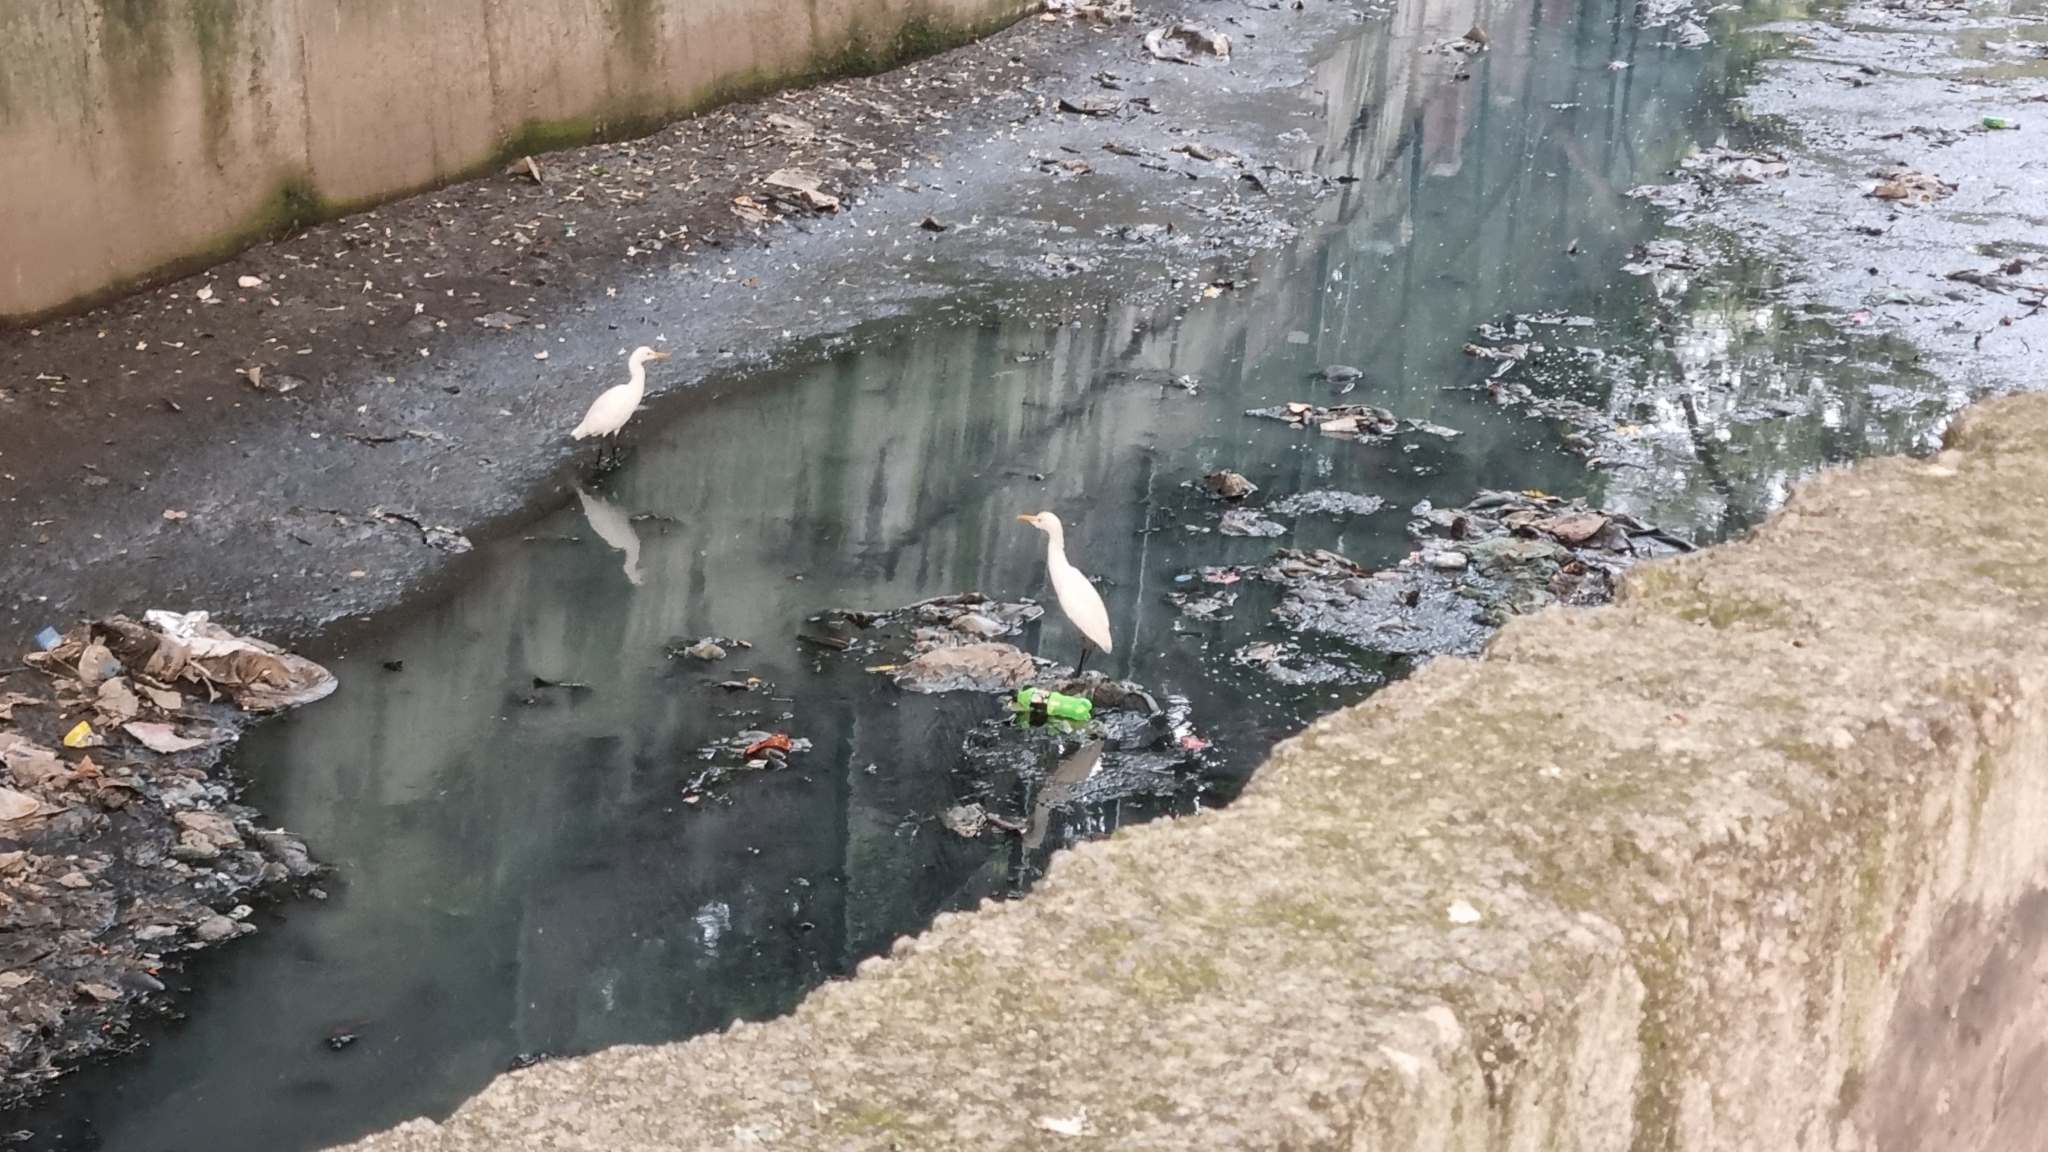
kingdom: Animalia
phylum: Chordata
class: Aves
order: Pelecaniformes
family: Ardeidae
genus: Bubulcus
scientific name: Bubulcus coromandus
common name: Eastern cattle egret
